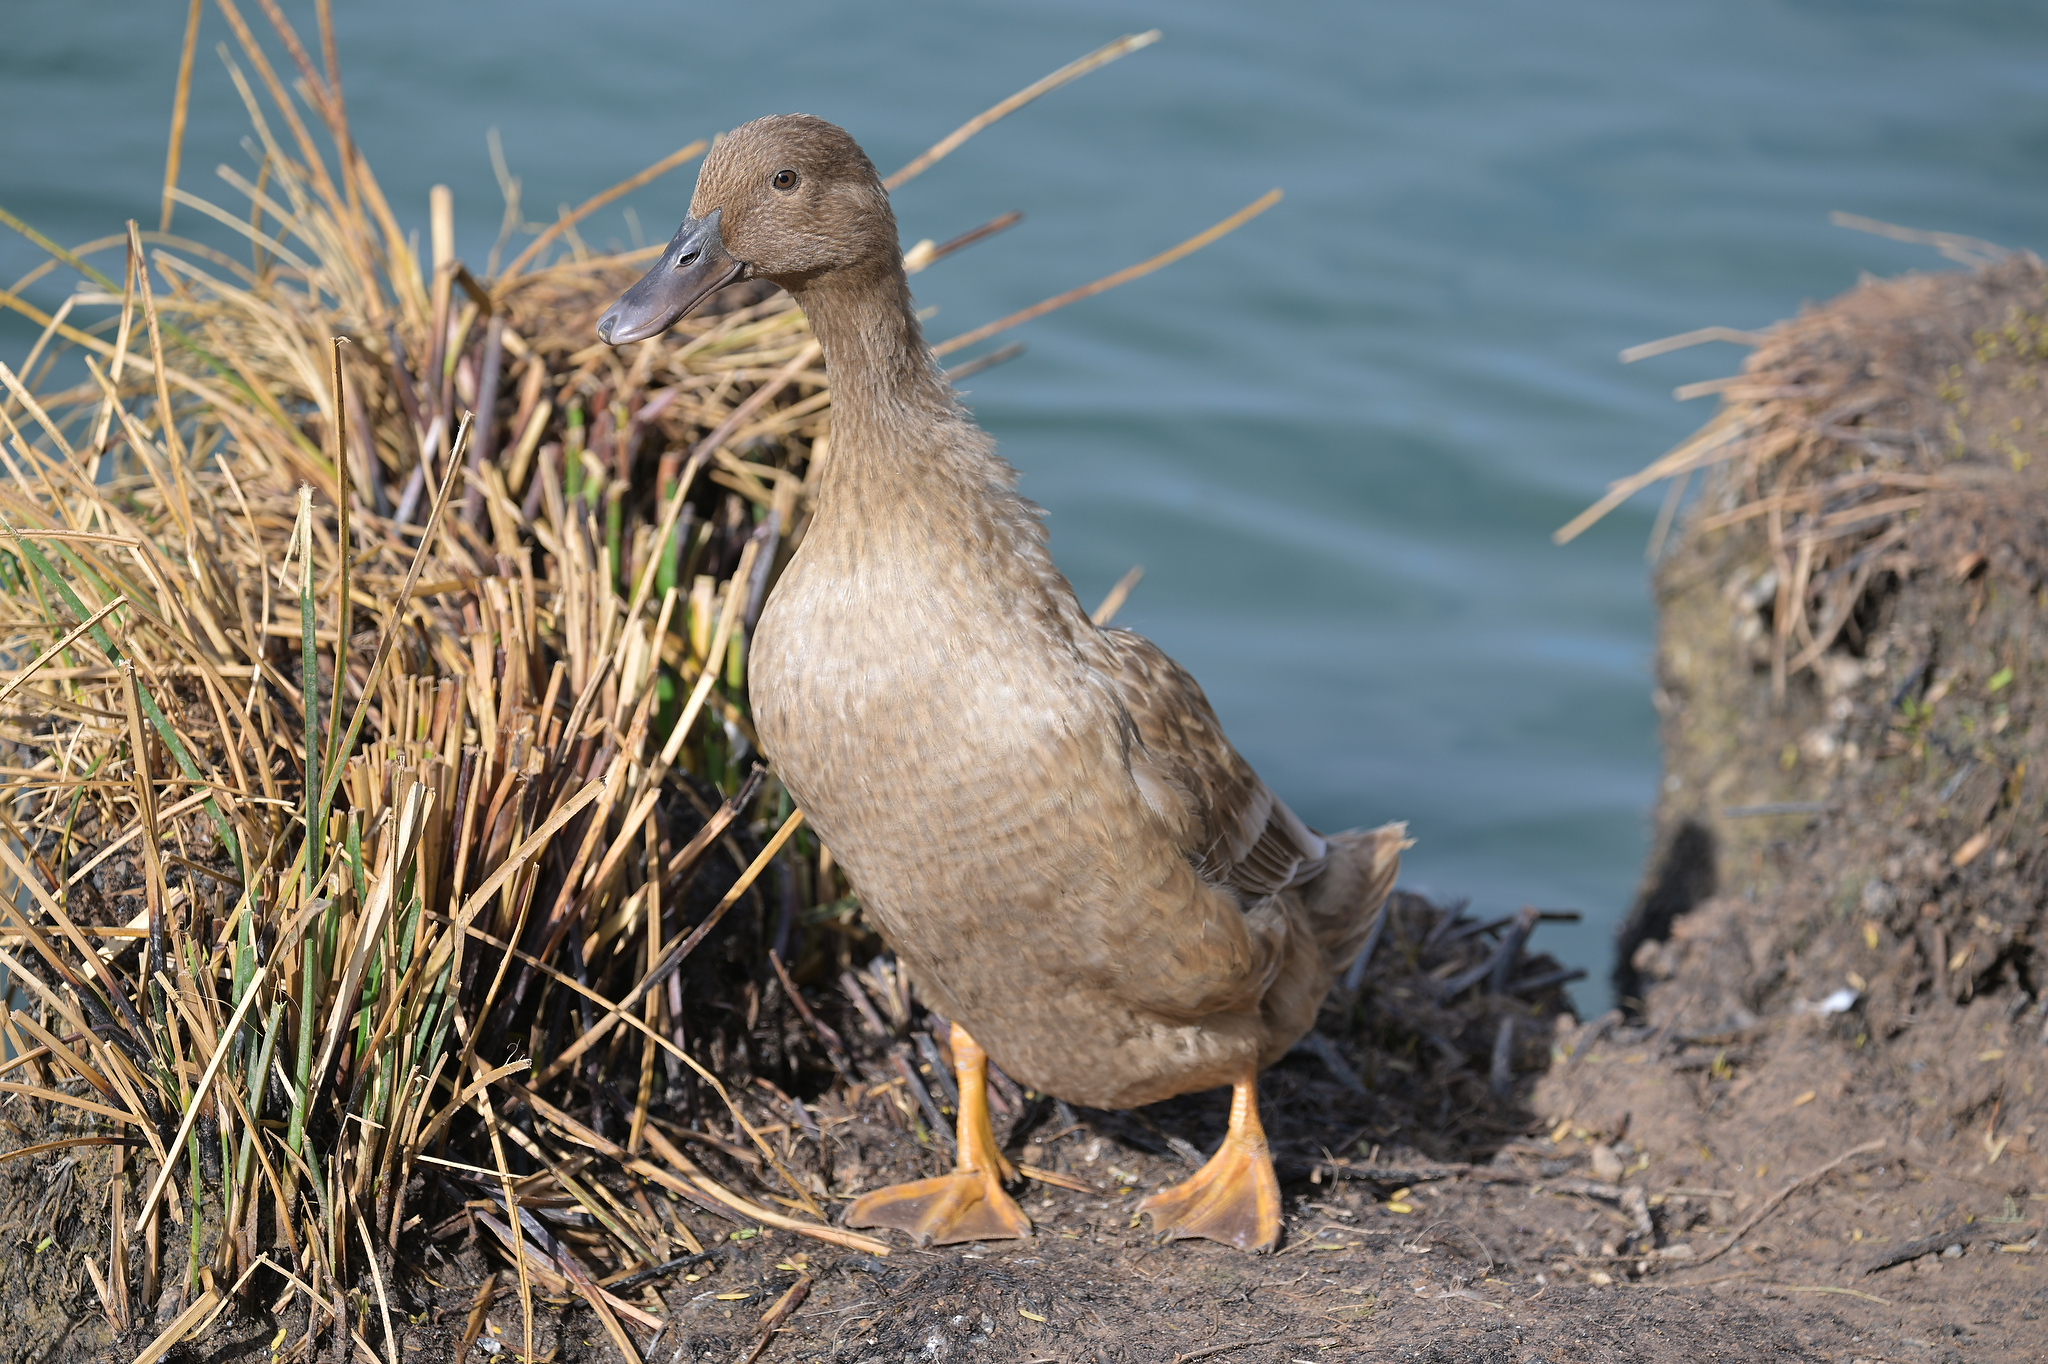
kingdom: Animalia
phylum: Chordata
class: Aves
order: Anseriformes
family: Anatidae
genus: Anas
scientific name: Anas platyrhynchos
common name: Mallard
